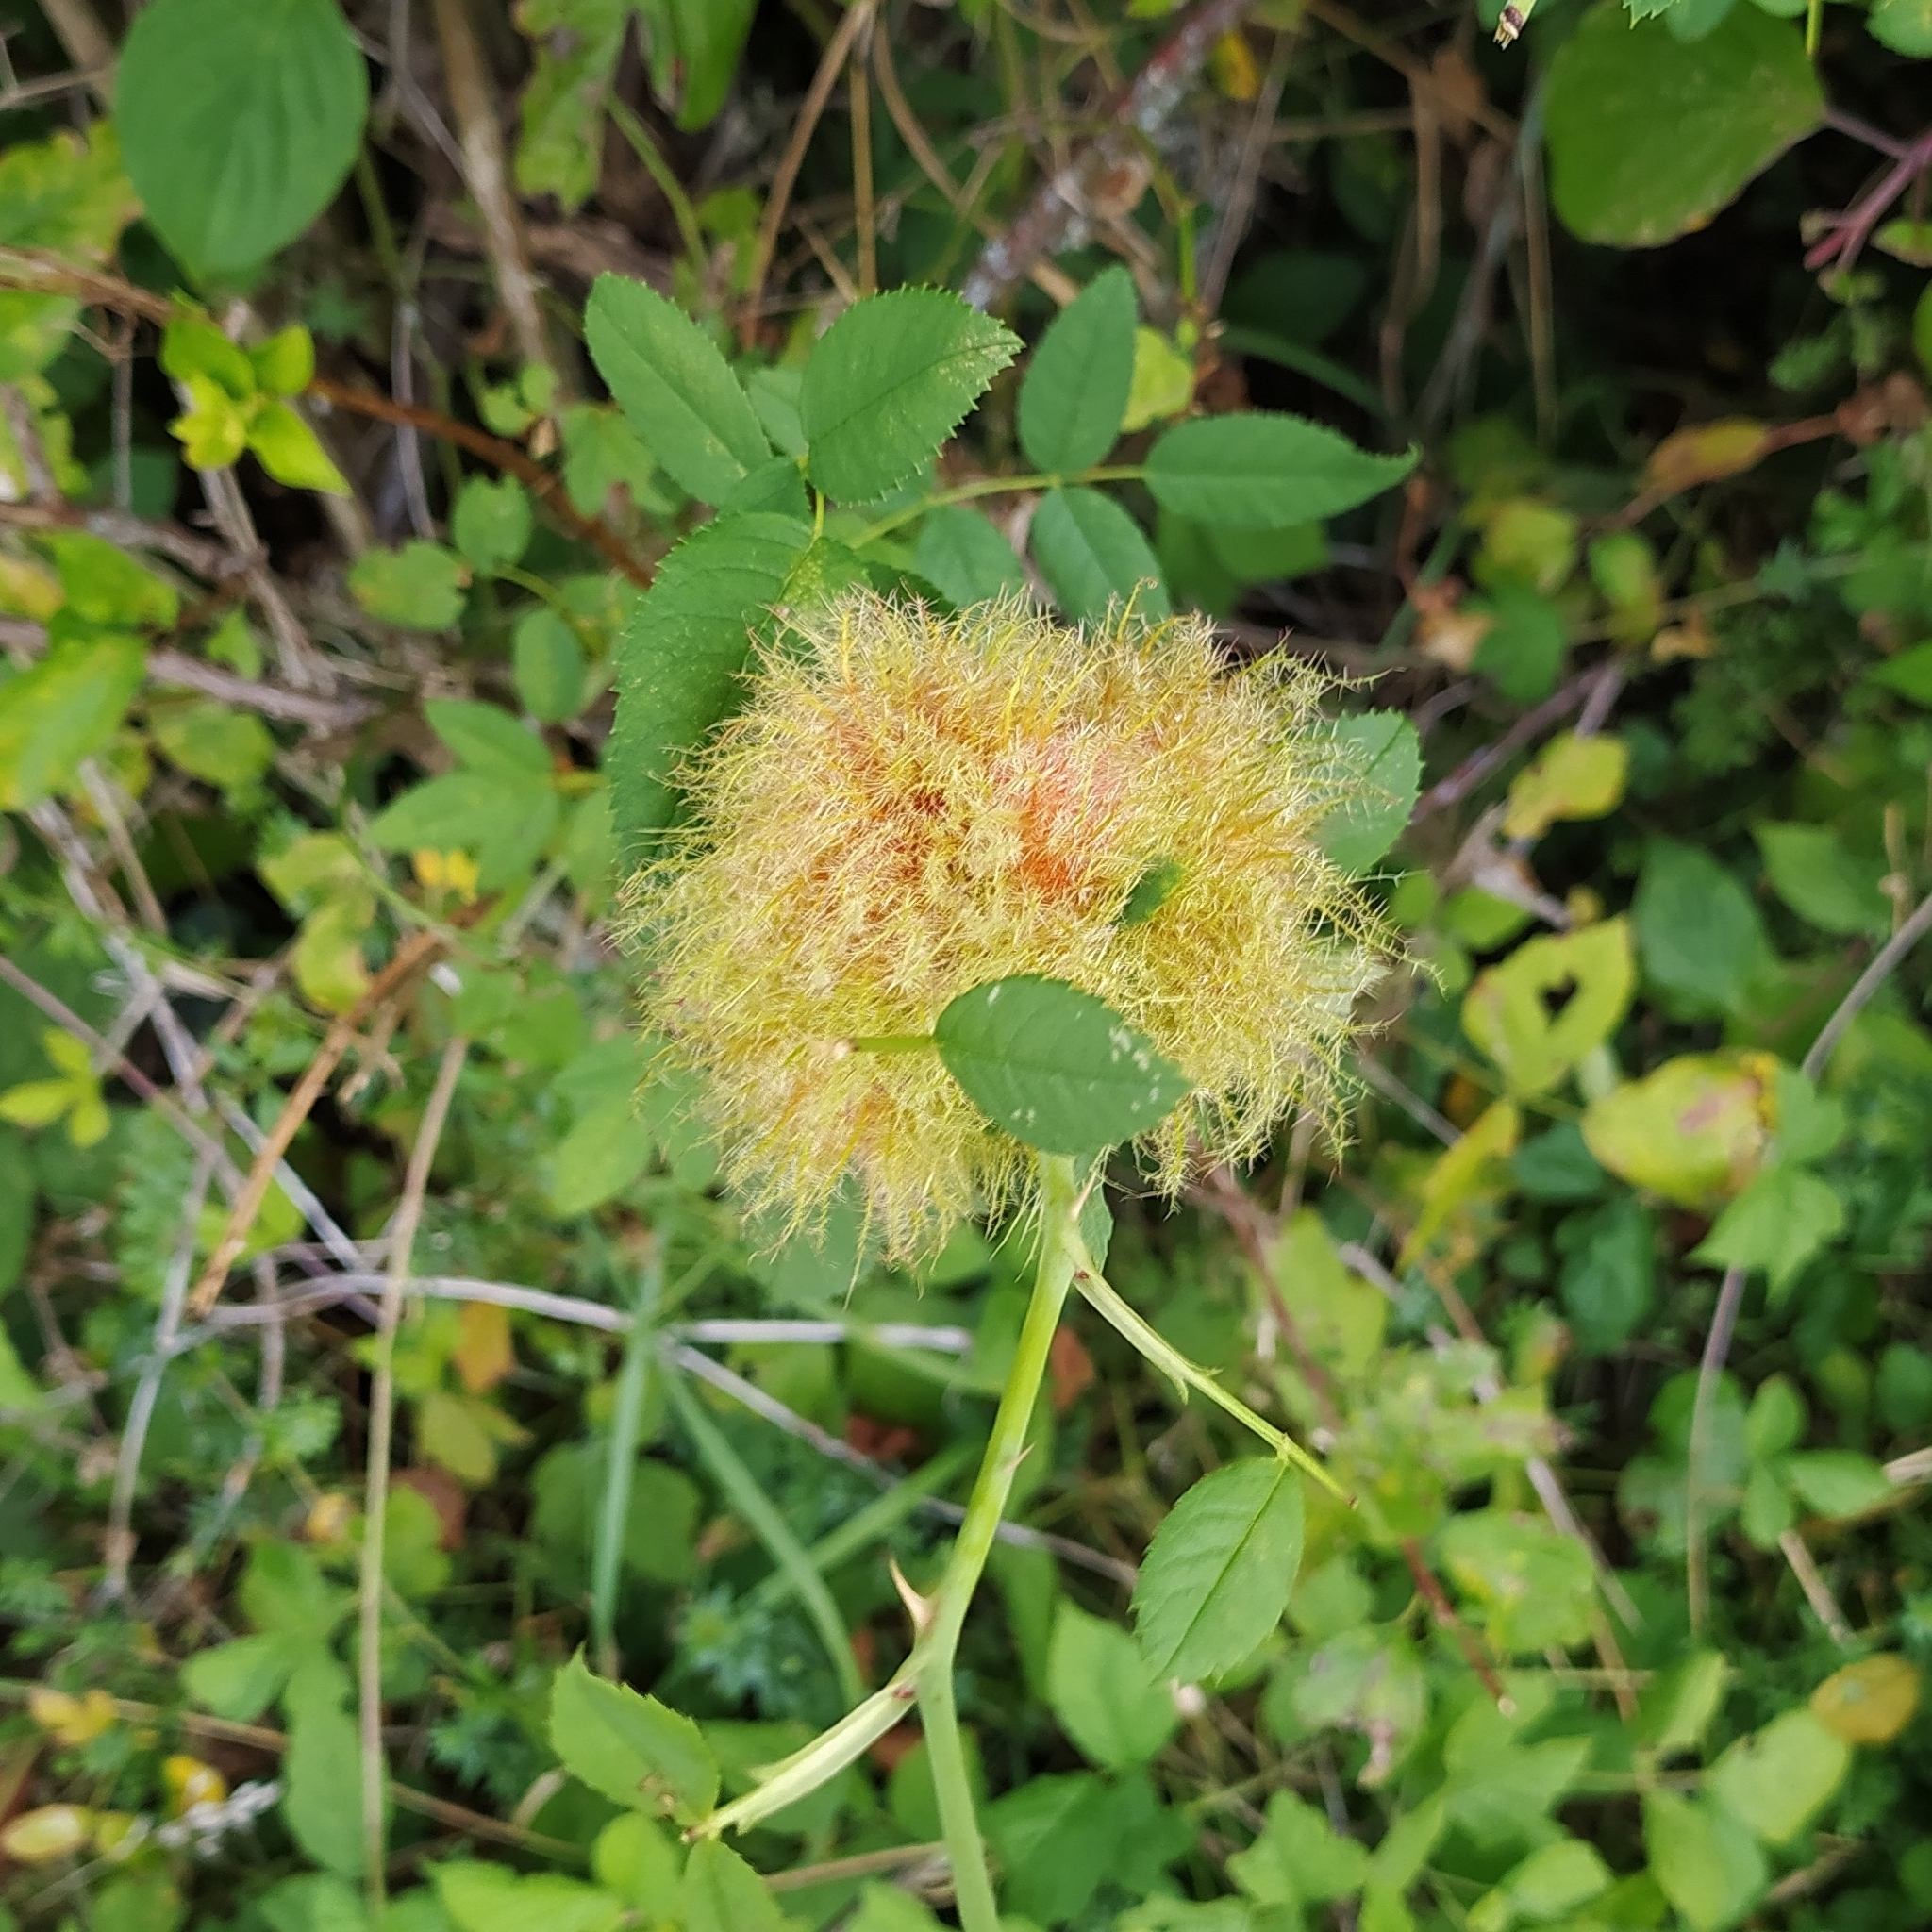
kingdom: Animalia
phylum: Arthropoda
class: Insecta
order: Hymenoptera
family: Cynipidae
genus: Diplolepis
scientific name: Diplolepis rosae
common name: Bedeguar gall
